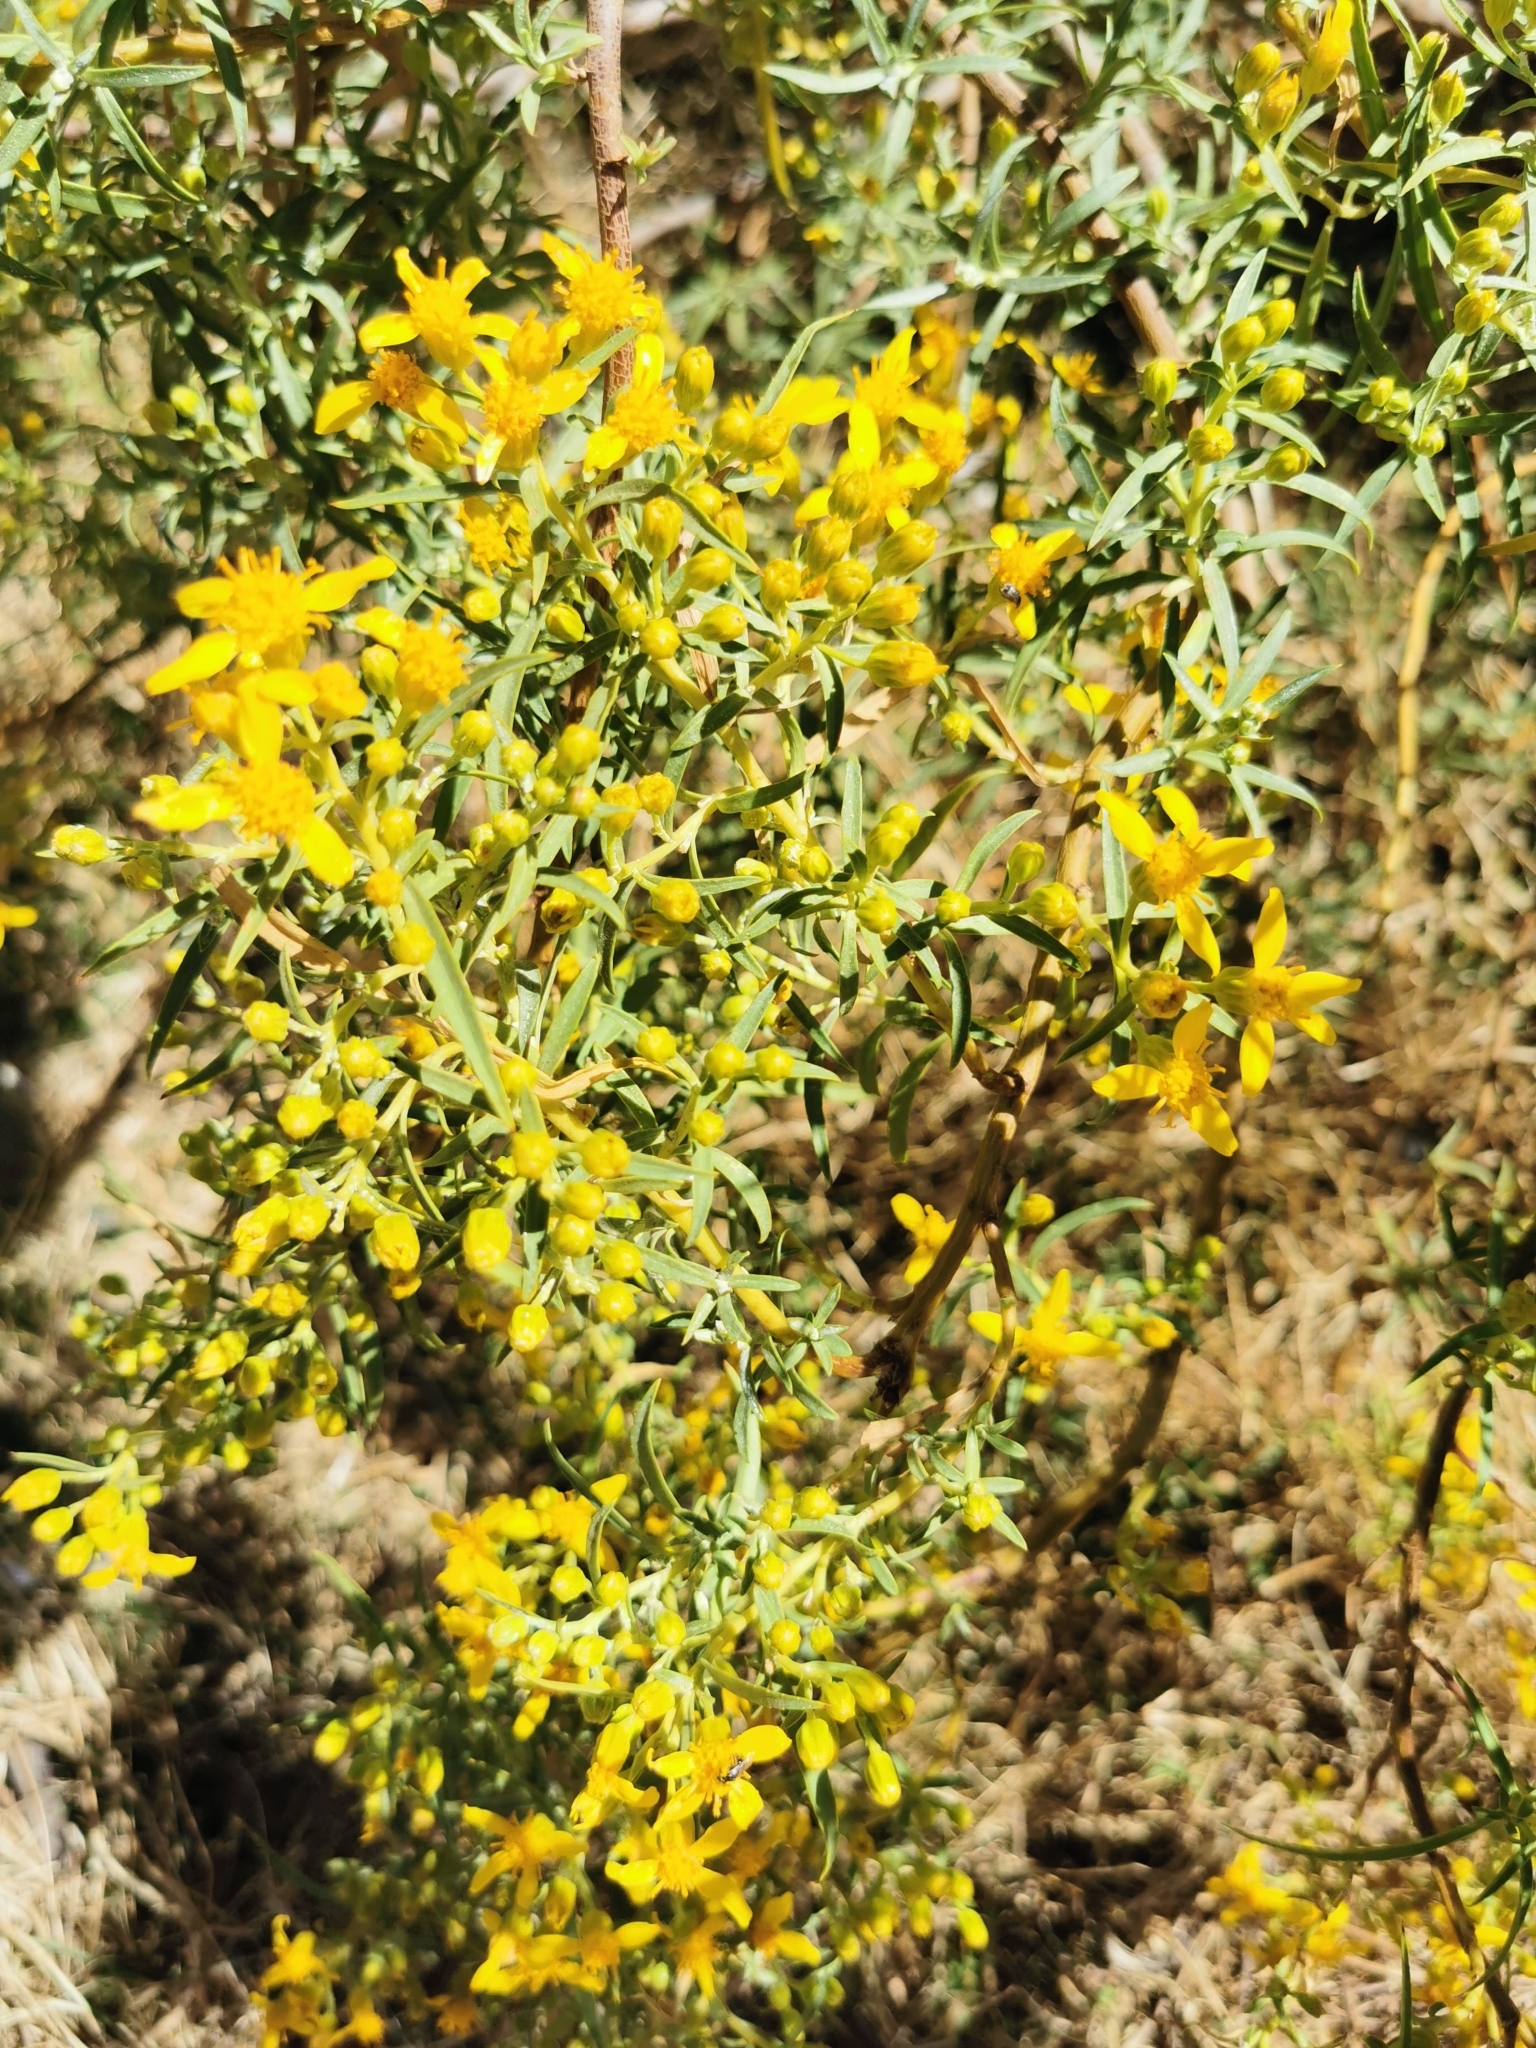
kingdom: Plantae
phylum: Tracheophyta
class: Magnoliopsida
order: Asterales
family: Asteraceae
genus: Barkleyanthus
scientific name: Barkleyanthus salicifolius
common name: Willow ragwort
